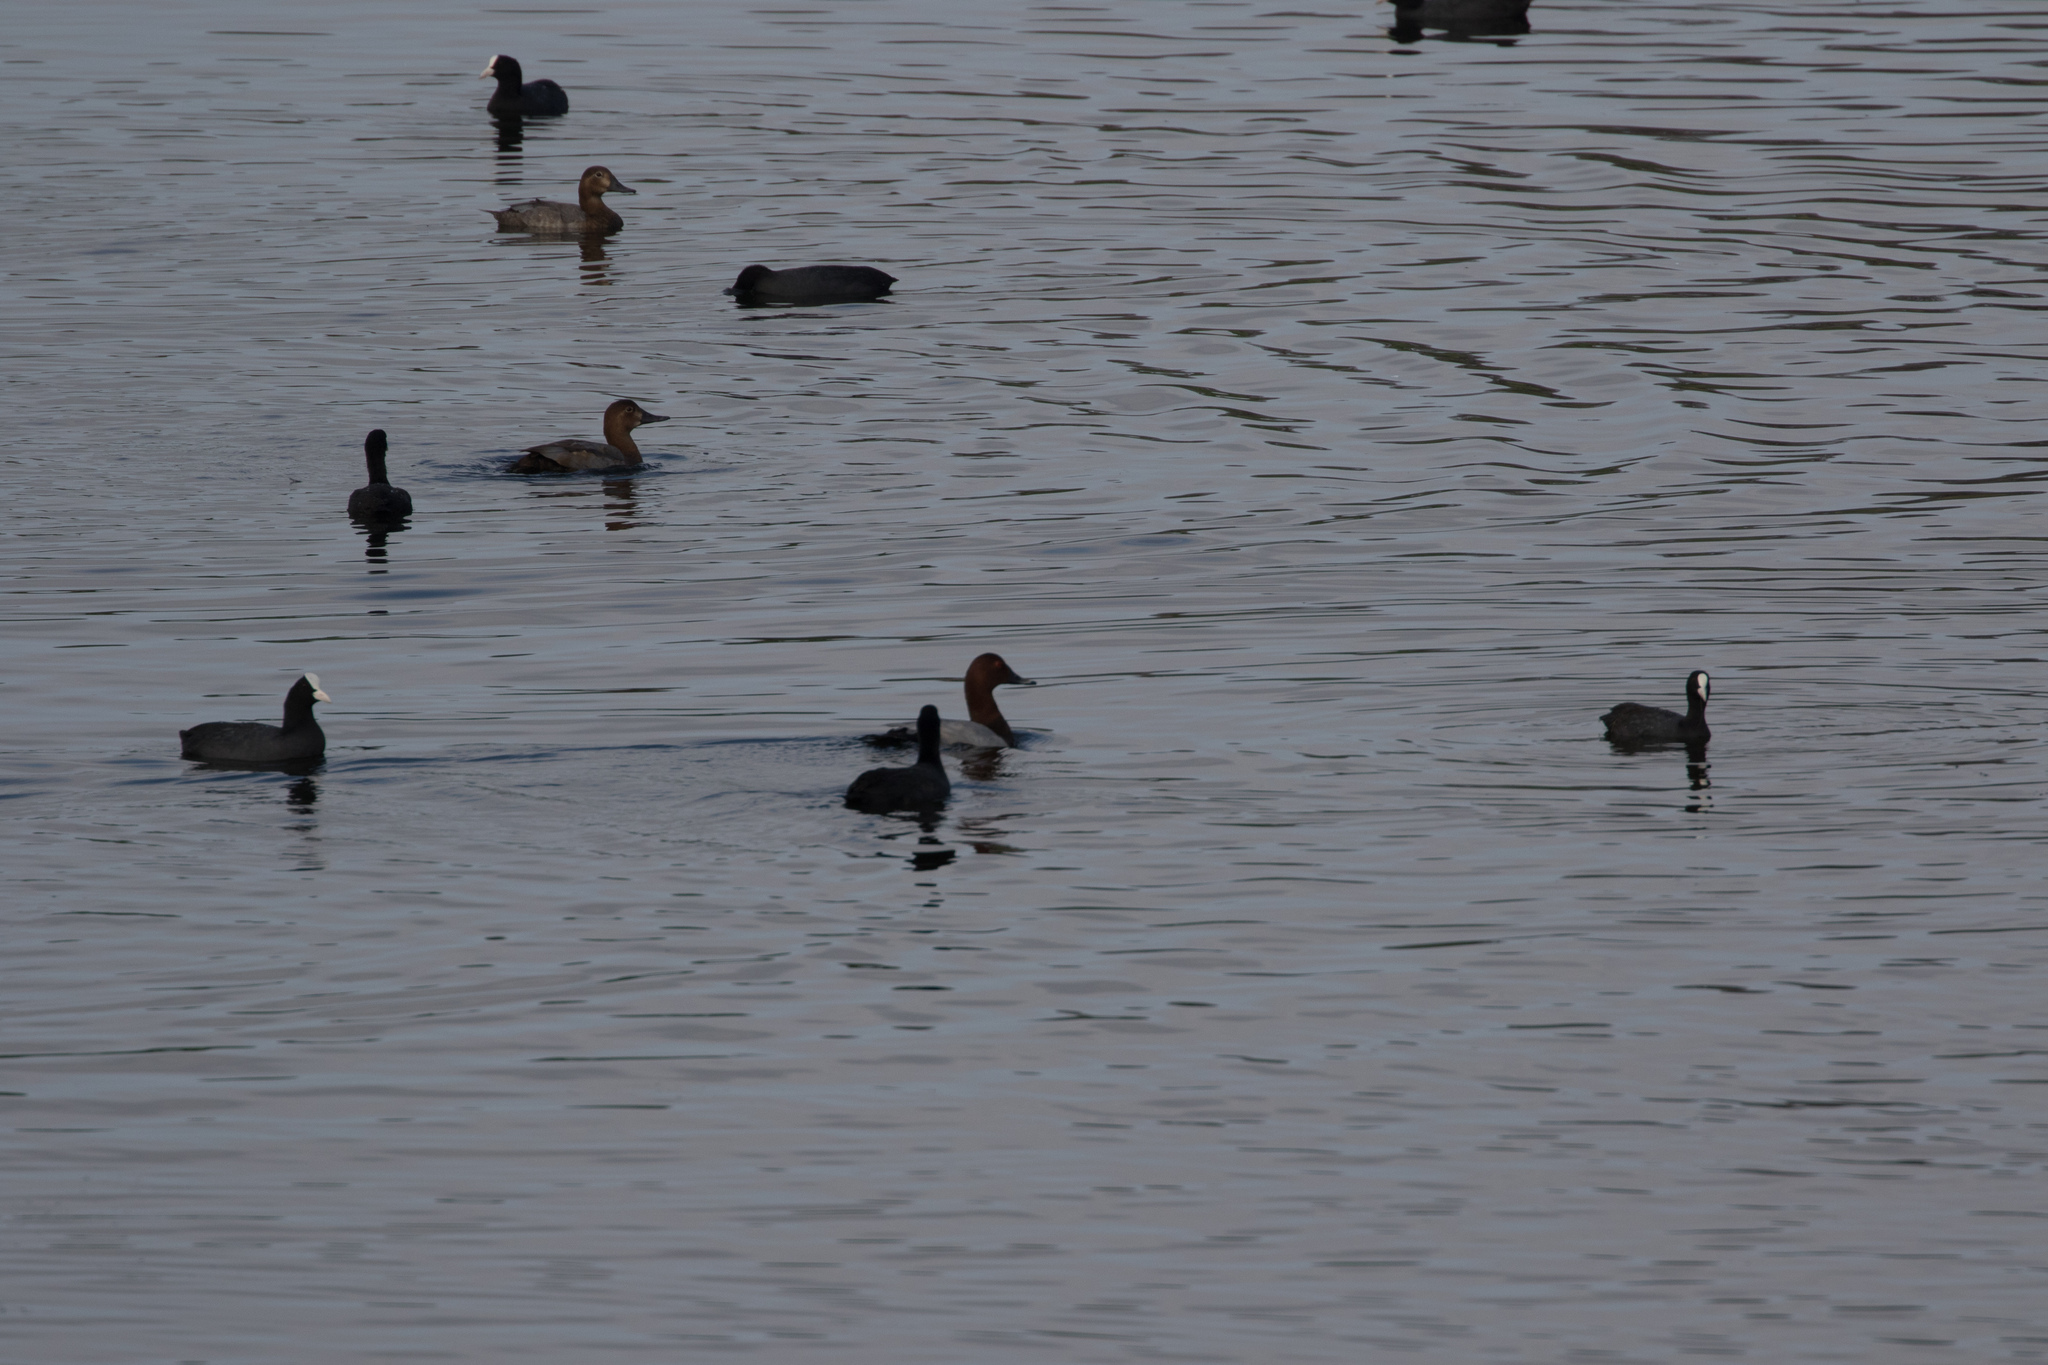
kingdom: Animalia
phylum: Chordata
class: Aves
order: Anseriformes
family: Anatidae
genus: Aythya
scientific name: Aythya ferina
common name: Common pochard
